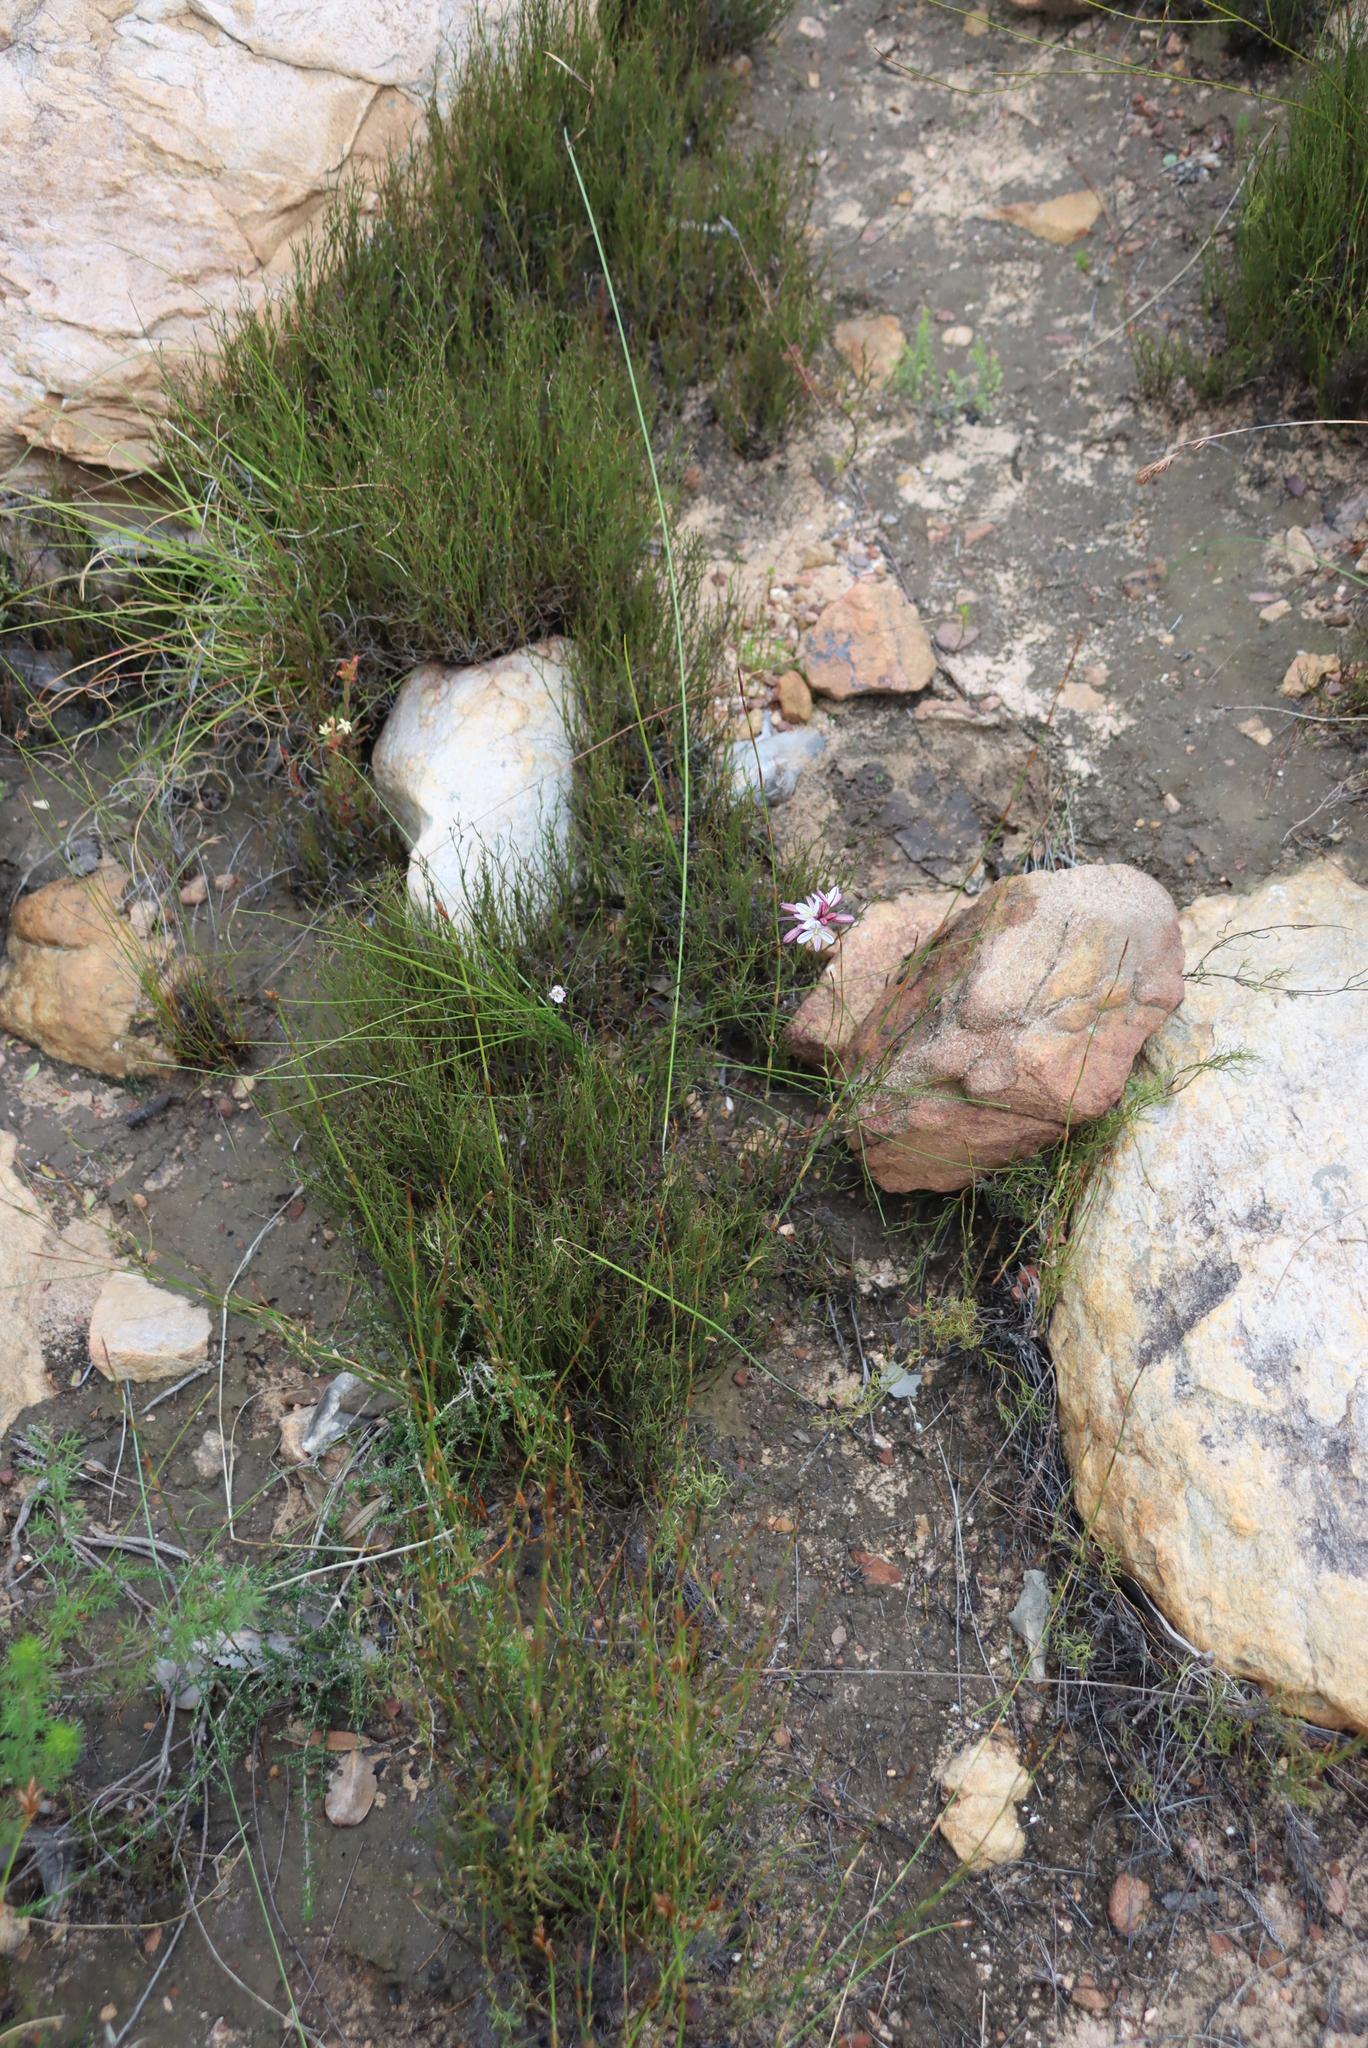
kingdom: Plantae
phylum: Tracheophyta
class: Liliopsida
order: Asparagales
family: Asparagaceae
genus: Drimia
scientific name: Drimia exuviata
